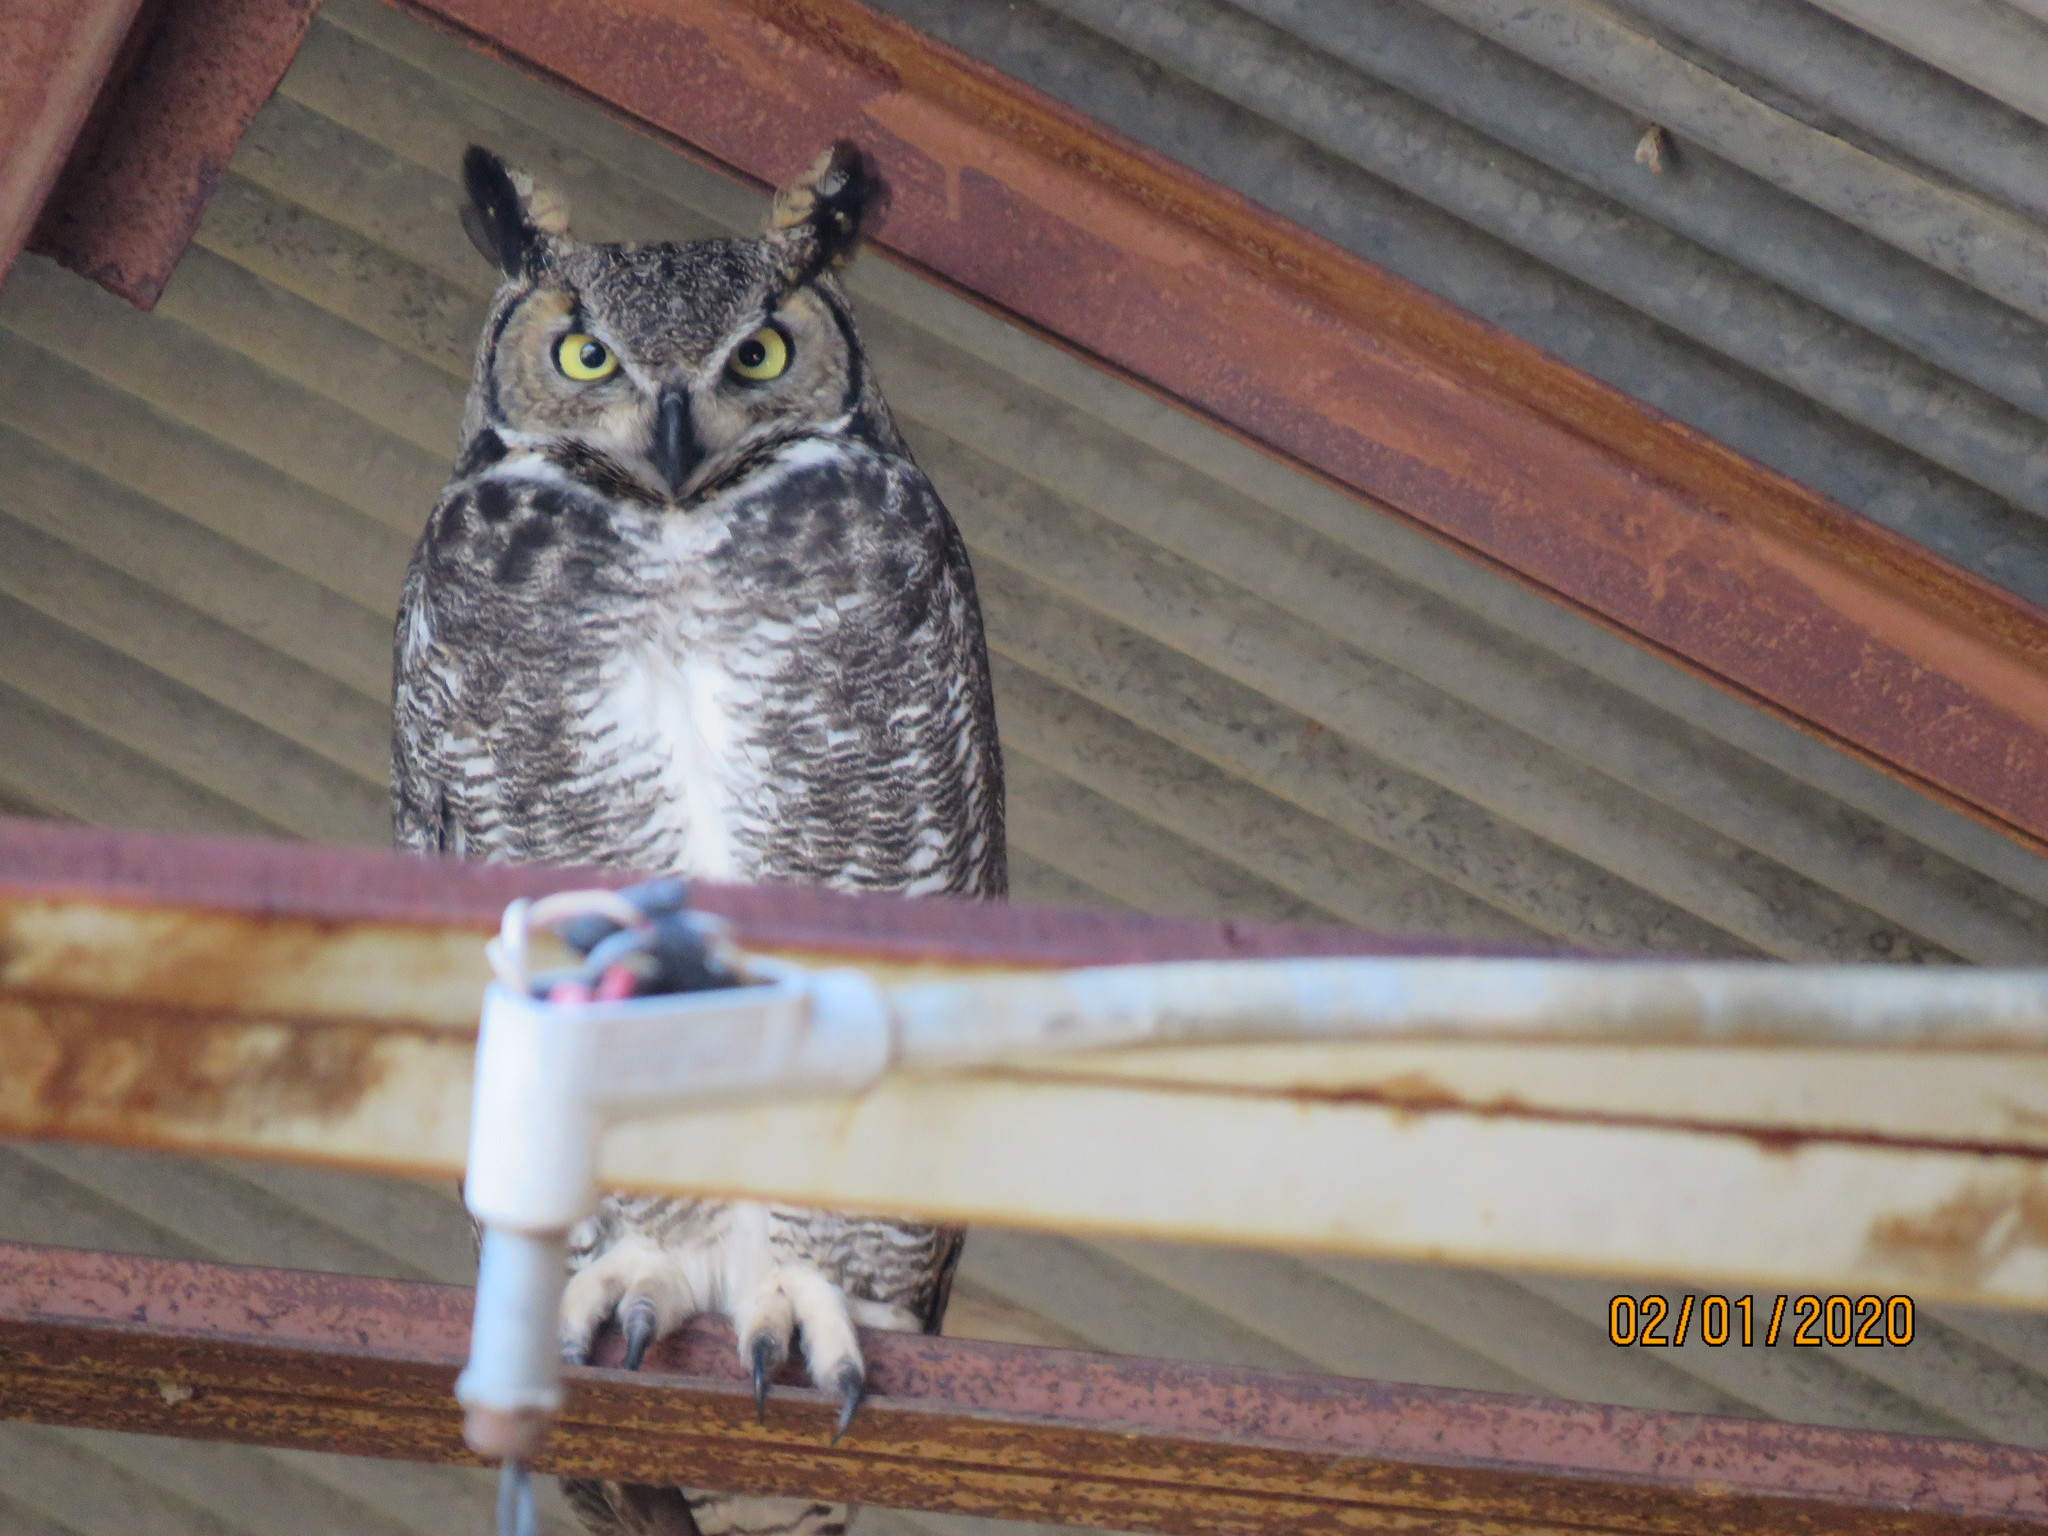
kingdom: Animalia
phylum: Chordata
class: Aves
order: Strigiformes
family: Strigidae
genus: Bubo
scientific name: Bubo virginianus
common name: Great horned owl
